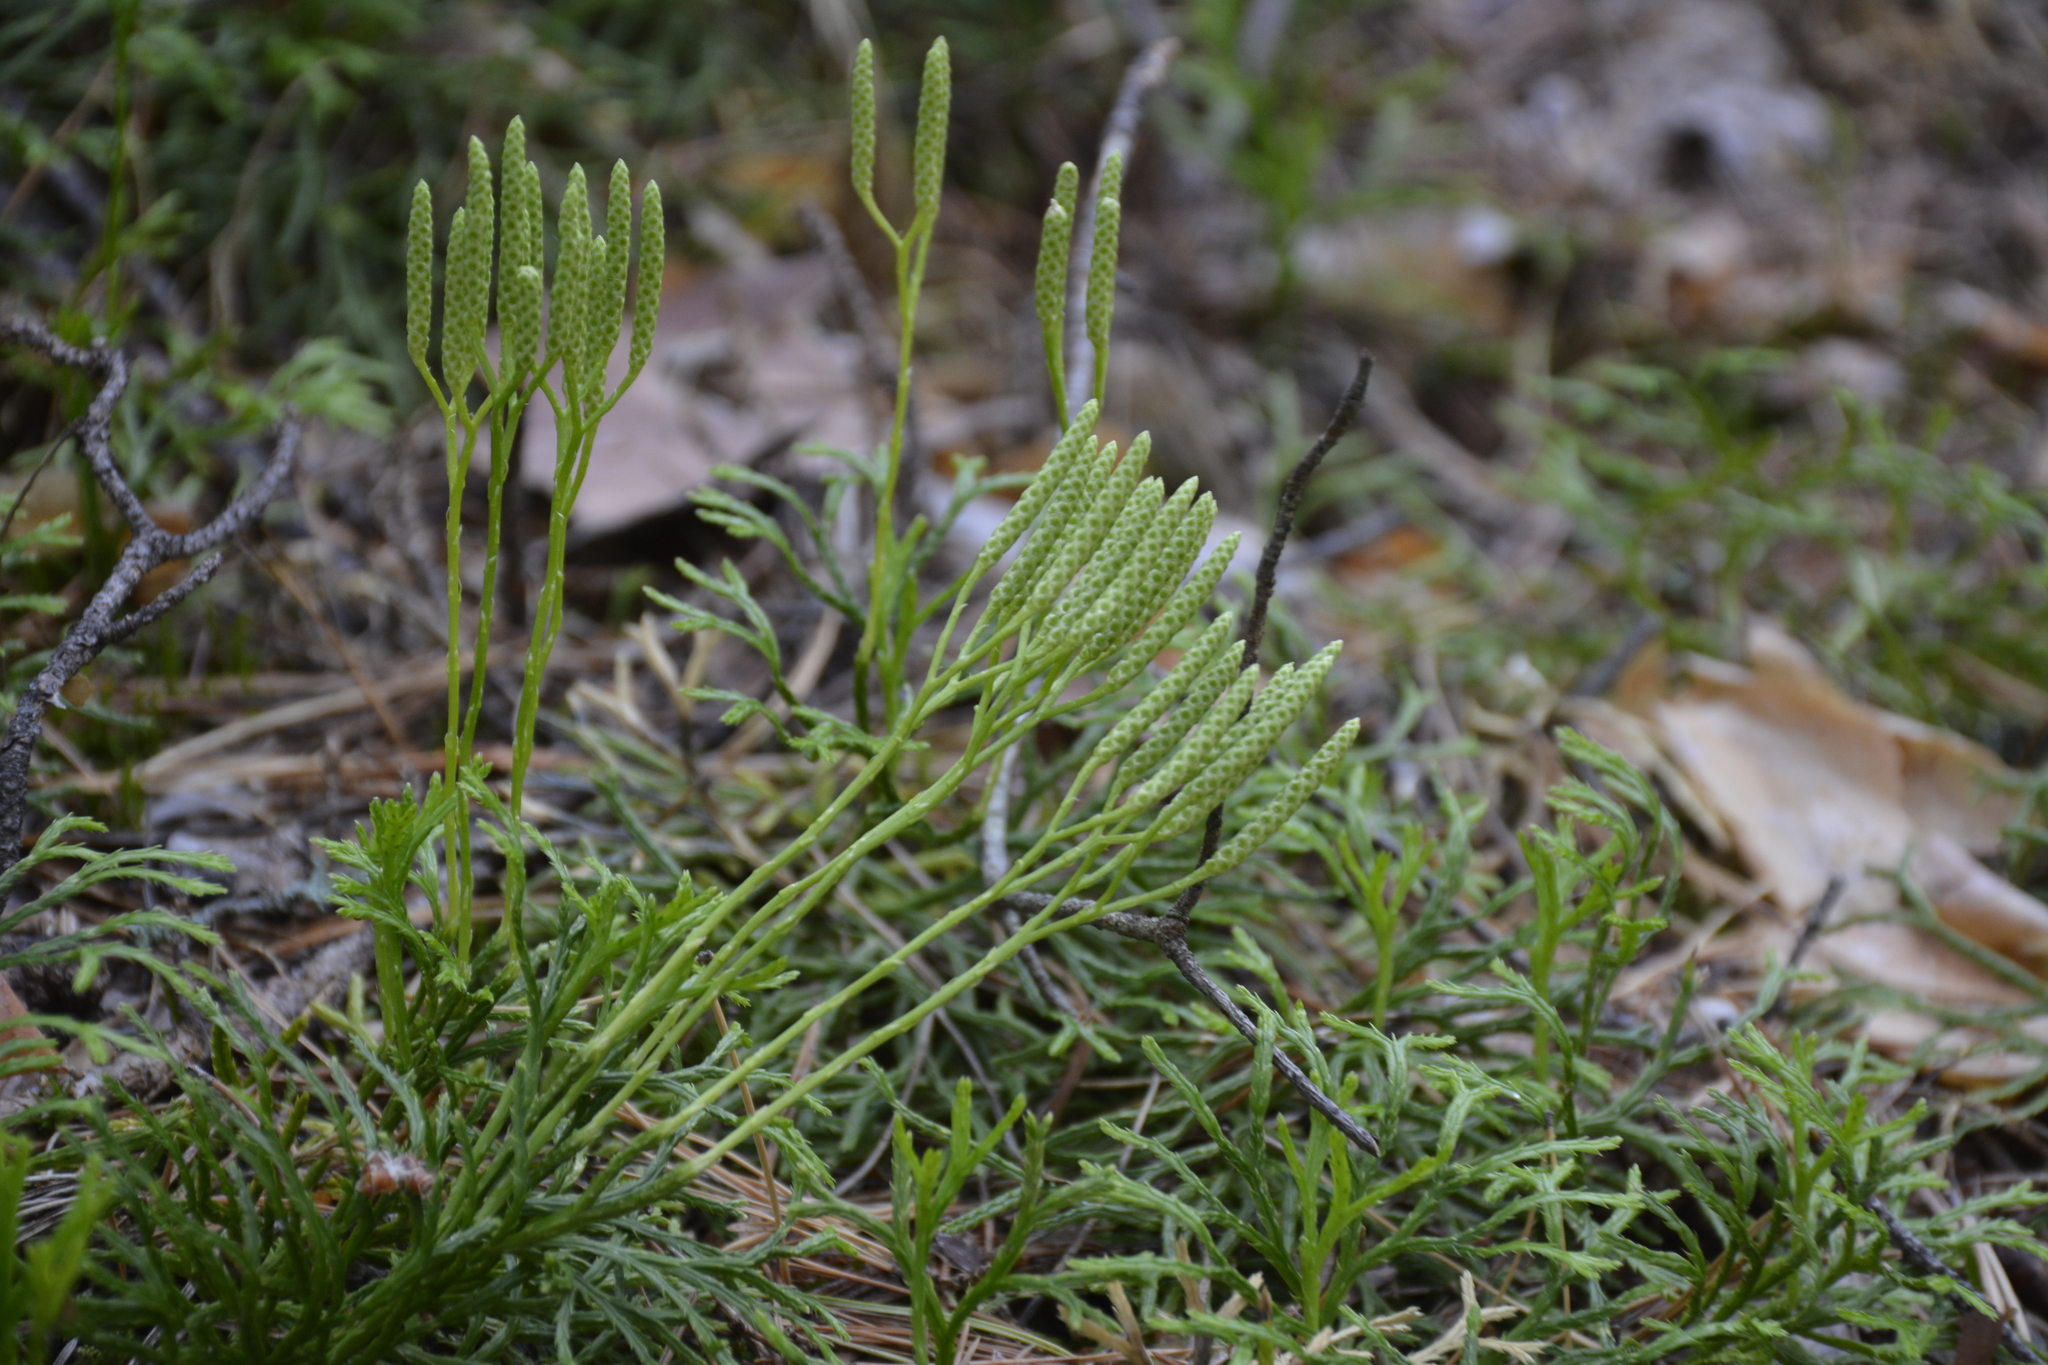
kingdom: Plantae
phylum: Tracheophyta
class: Lycopodiopsida
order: Lycopodiales
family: Lycopodiaceae
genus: Diphasiastrum
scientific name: Diphasiastrum complanatum
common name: Northern running-pine
